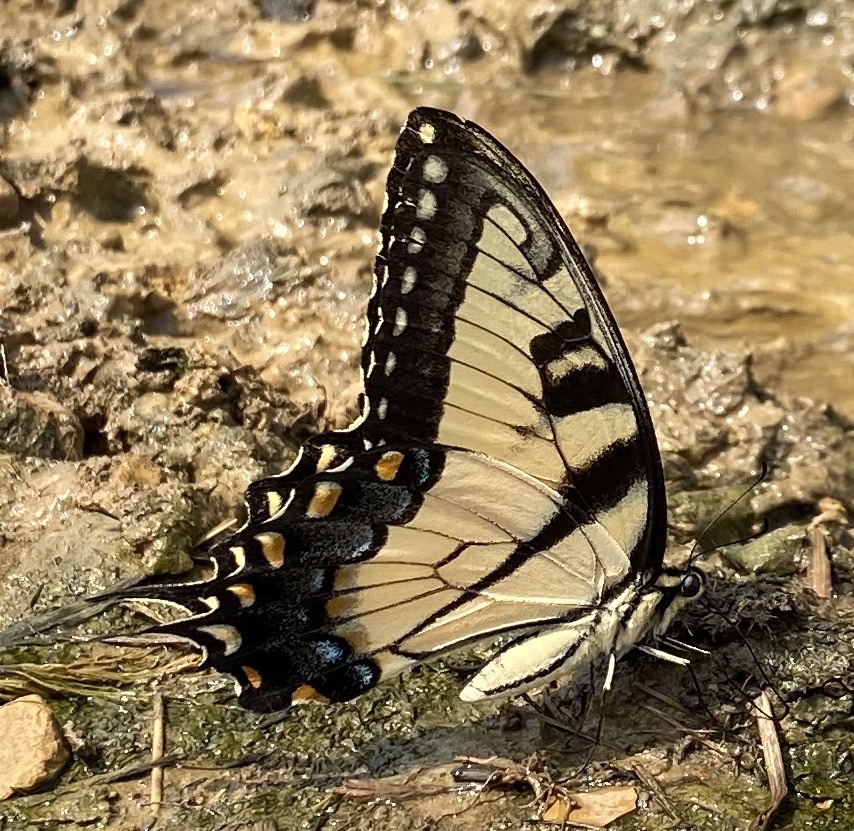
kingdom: Animalia
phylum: Arthropoda
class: Insecta
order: Lepidoptera
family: Papilionidae
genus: Papilio
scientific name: Papilio glaucus
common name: Tiger swallowtail
